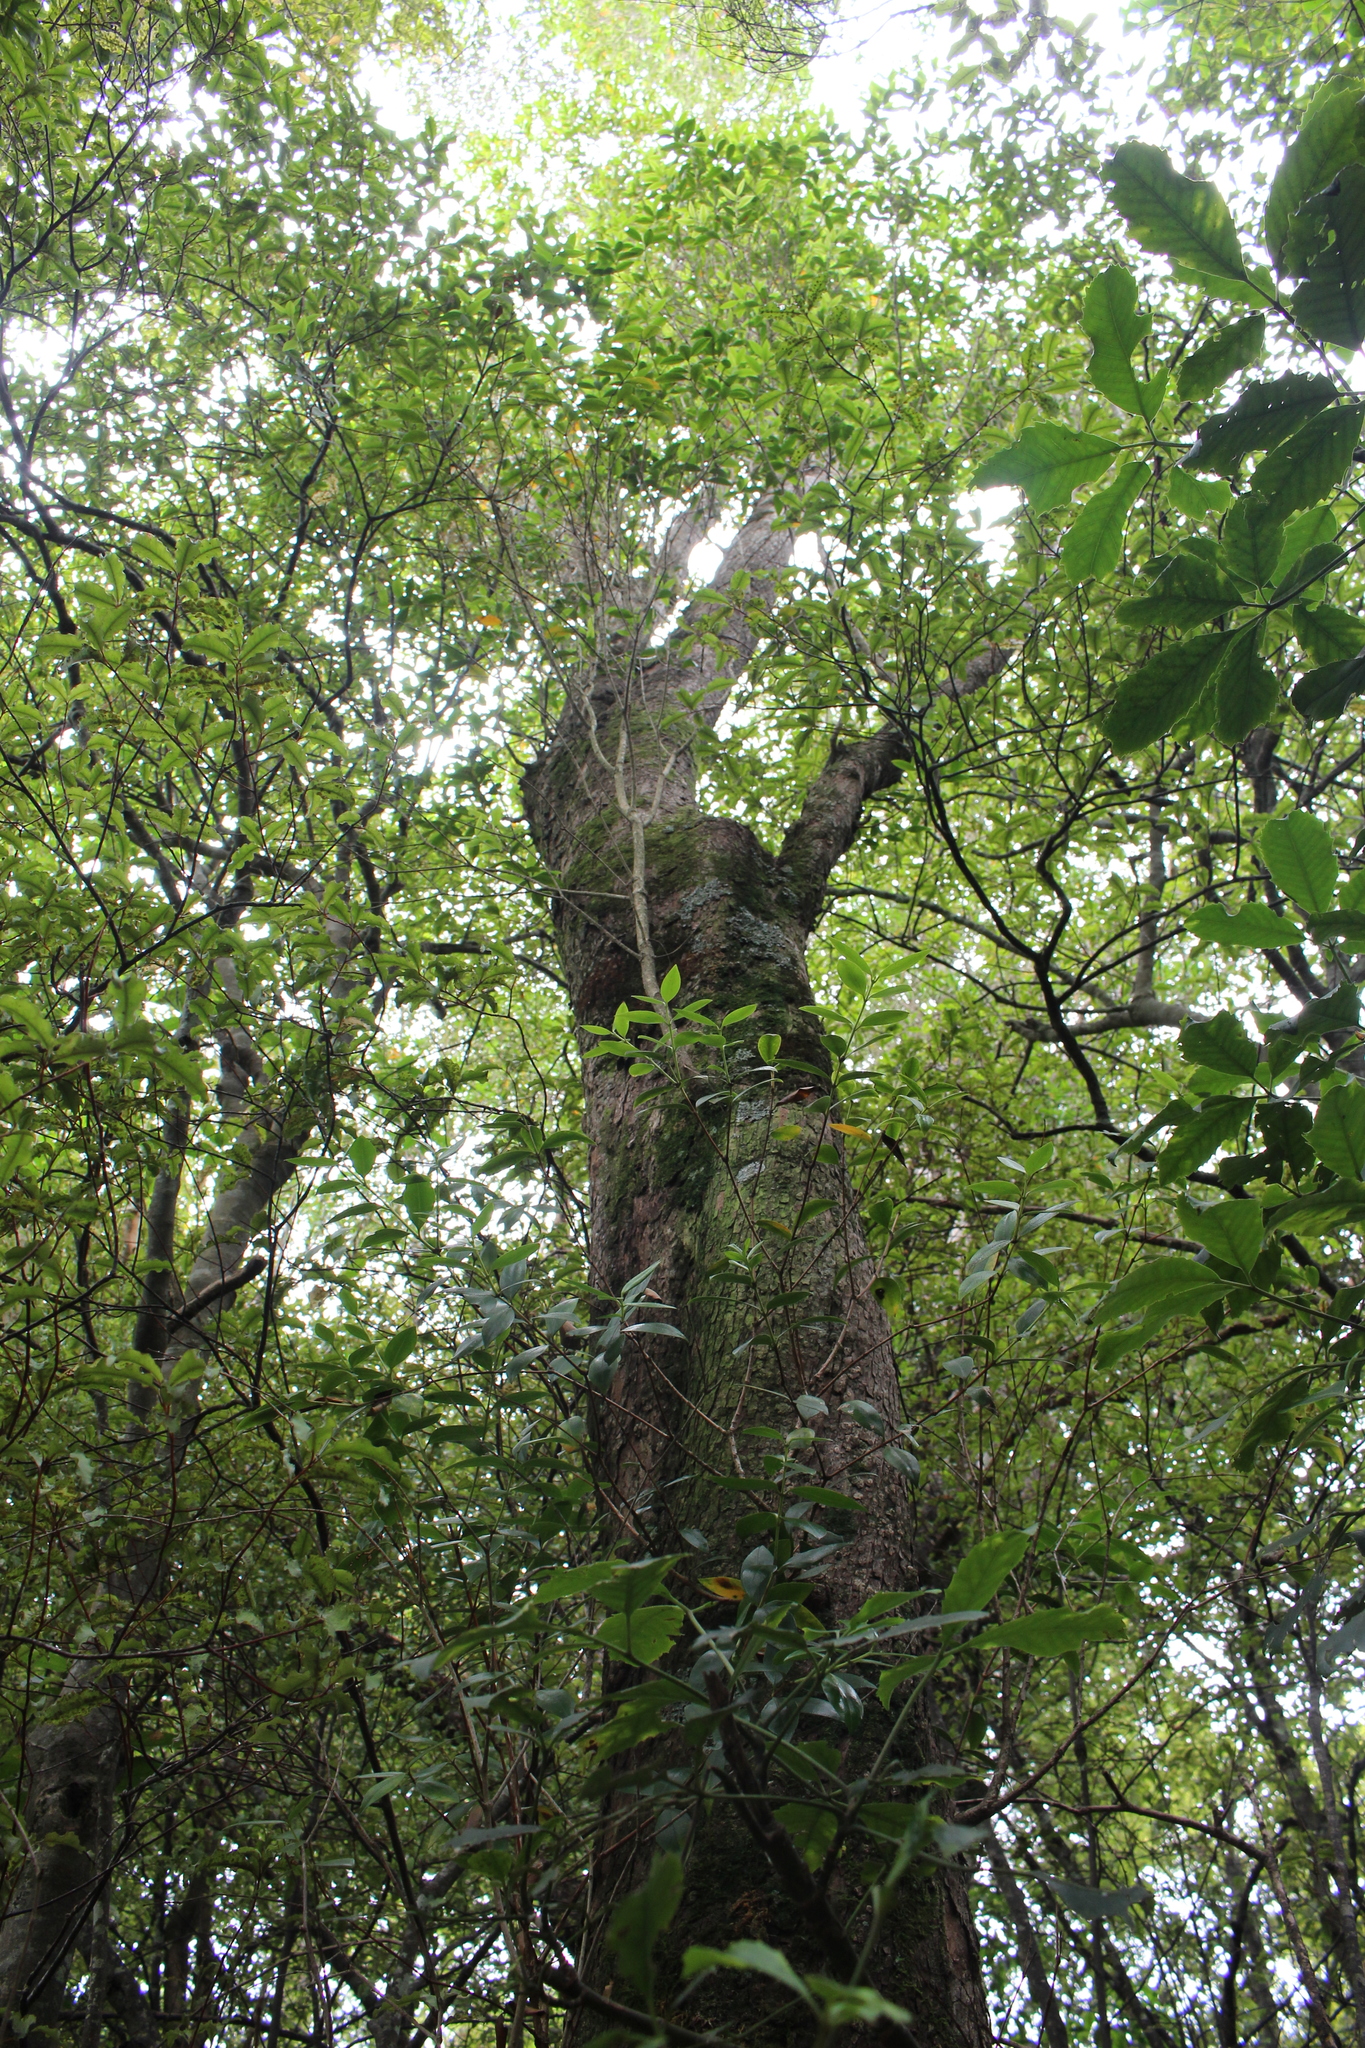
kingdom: Plantae
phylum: Tracheophyta
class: Magnoliopsida
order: Myrtales
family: Myrtaceae
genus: Metrosideros
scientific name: Metrosideros umbellata
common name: Southern rata
